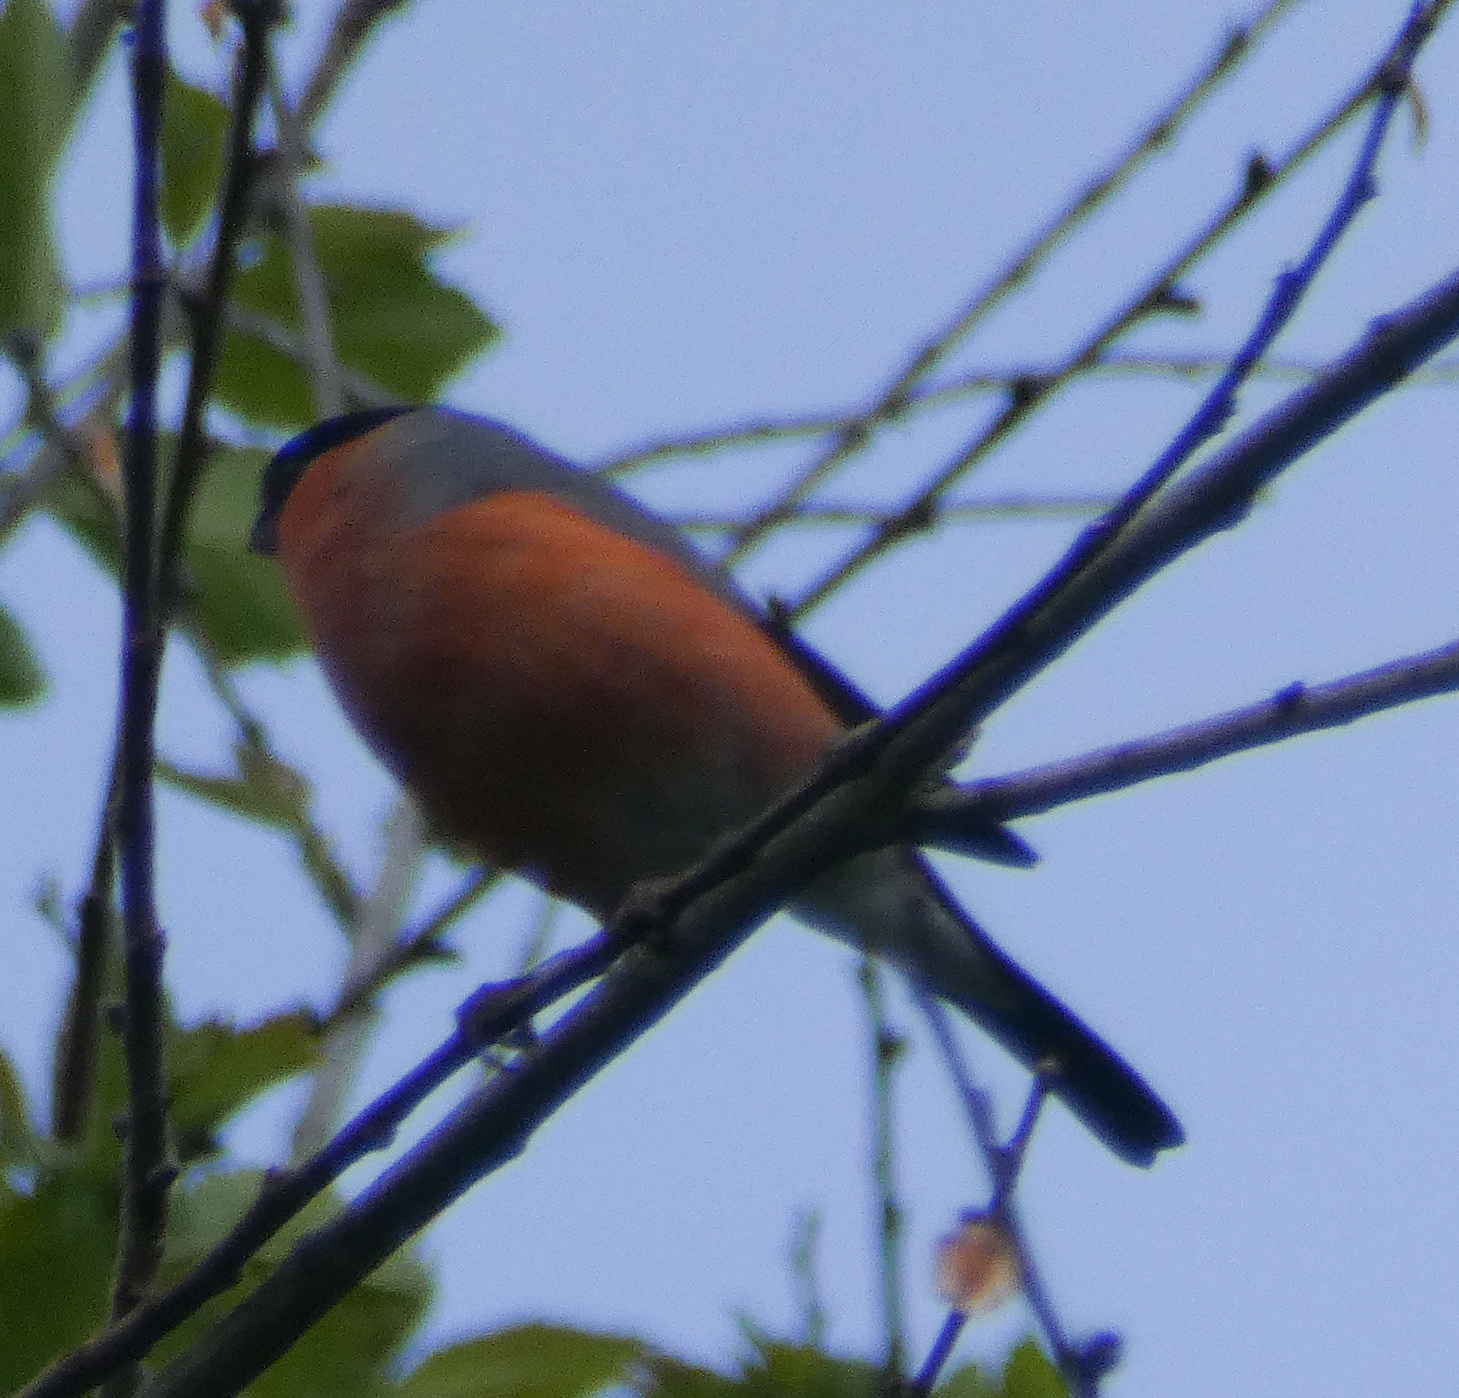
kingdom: Animalia
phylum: Chordata
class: Aves
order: Passeriformes
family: Fringillidae
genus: Pyrrhula
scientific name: Pyrrhula pyrrhula
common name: Eurasian bullfinch
